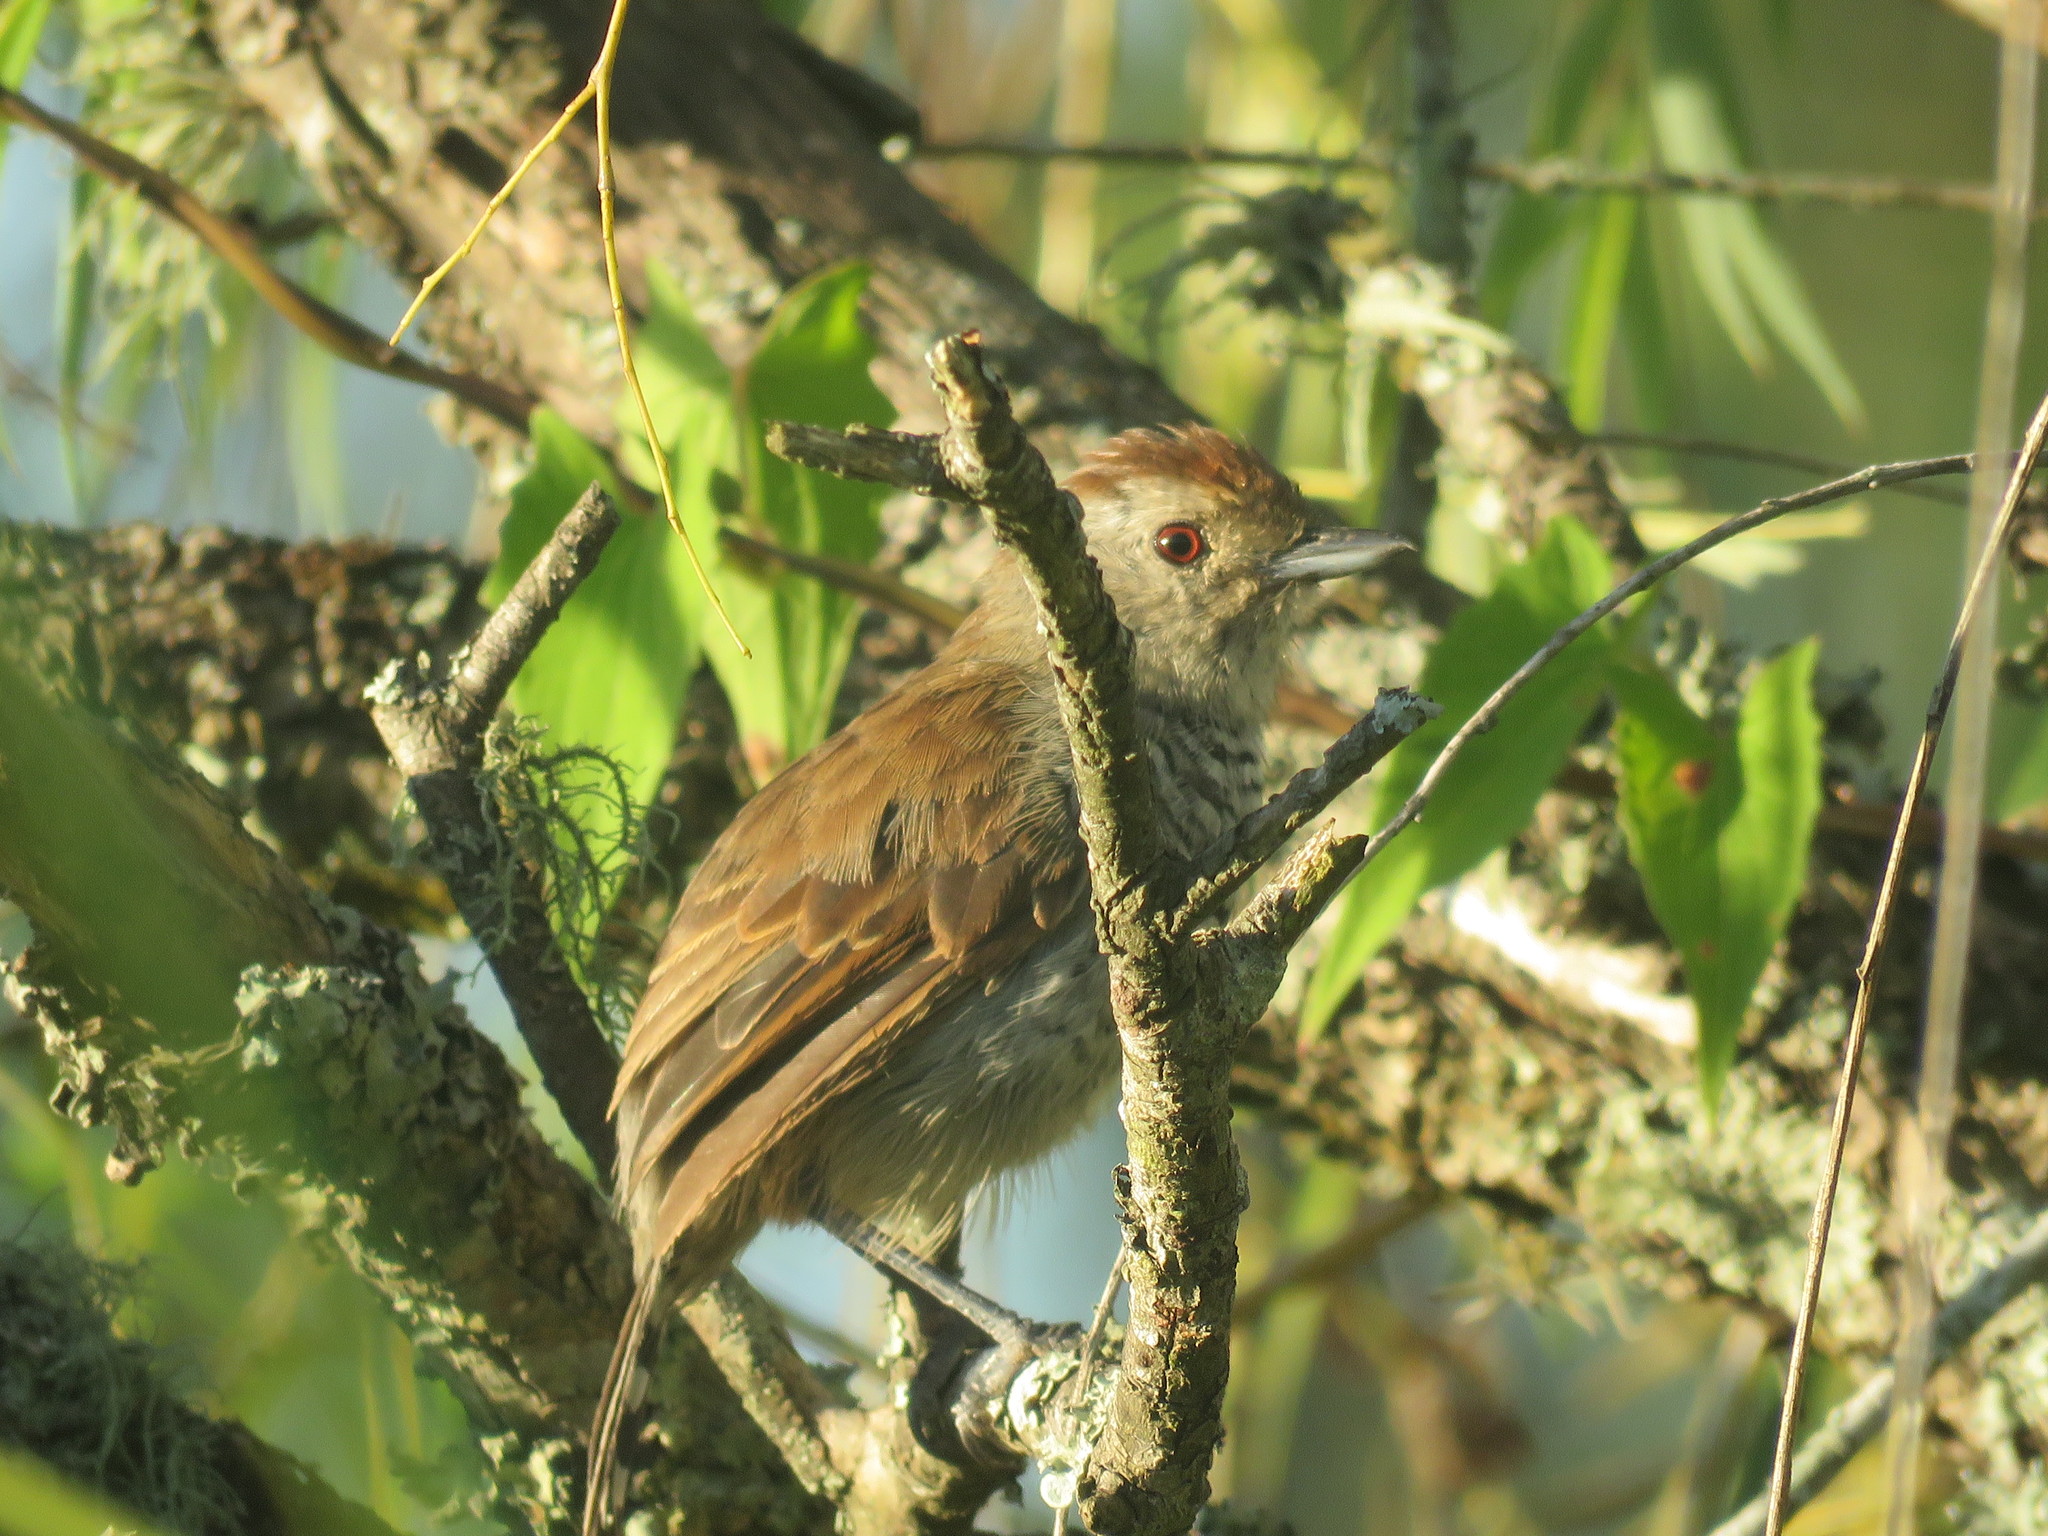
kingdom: Animalia
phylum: Chordata
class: Aves
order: Passeriformes
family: Thamnophilidae
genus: Thamnophilus
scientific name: Thamnophilus ruficapillus
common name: Rufous-capped antshrike
